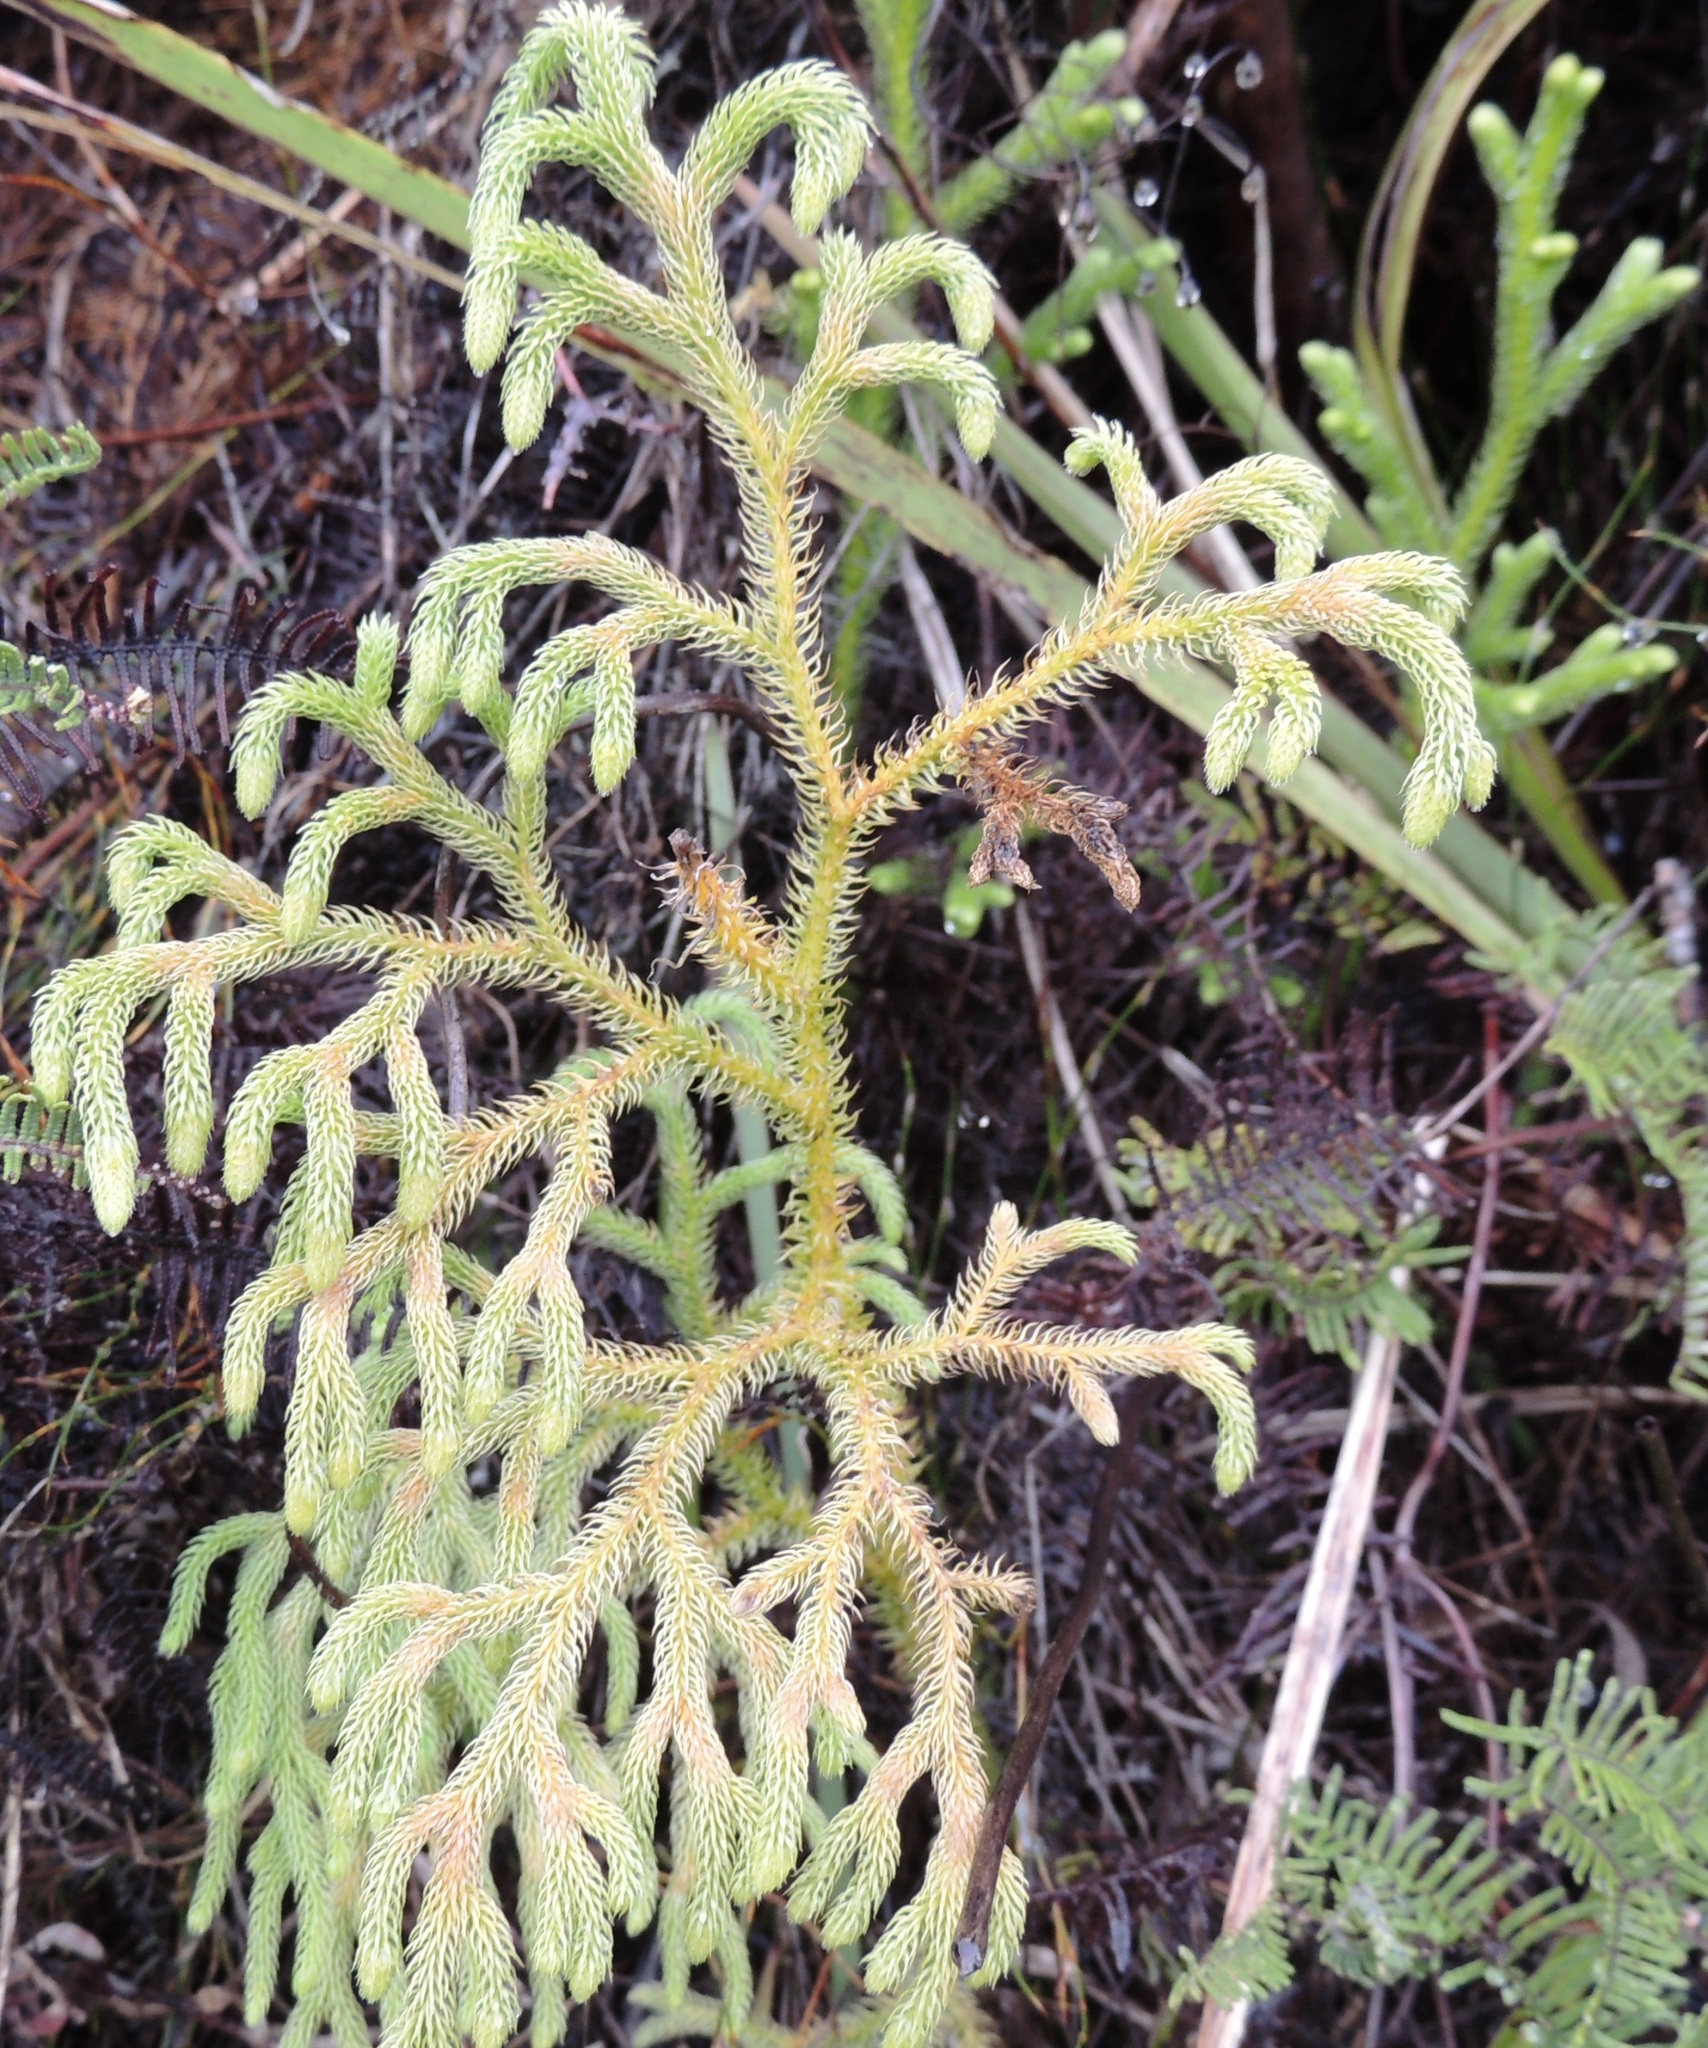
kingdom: Plantae
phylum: Tracheophyta
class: Lycopodiopsida
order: Lycopodiales
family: Lycopodiaceae
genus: Palhinhaea
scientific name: Palhinhaea cernua
